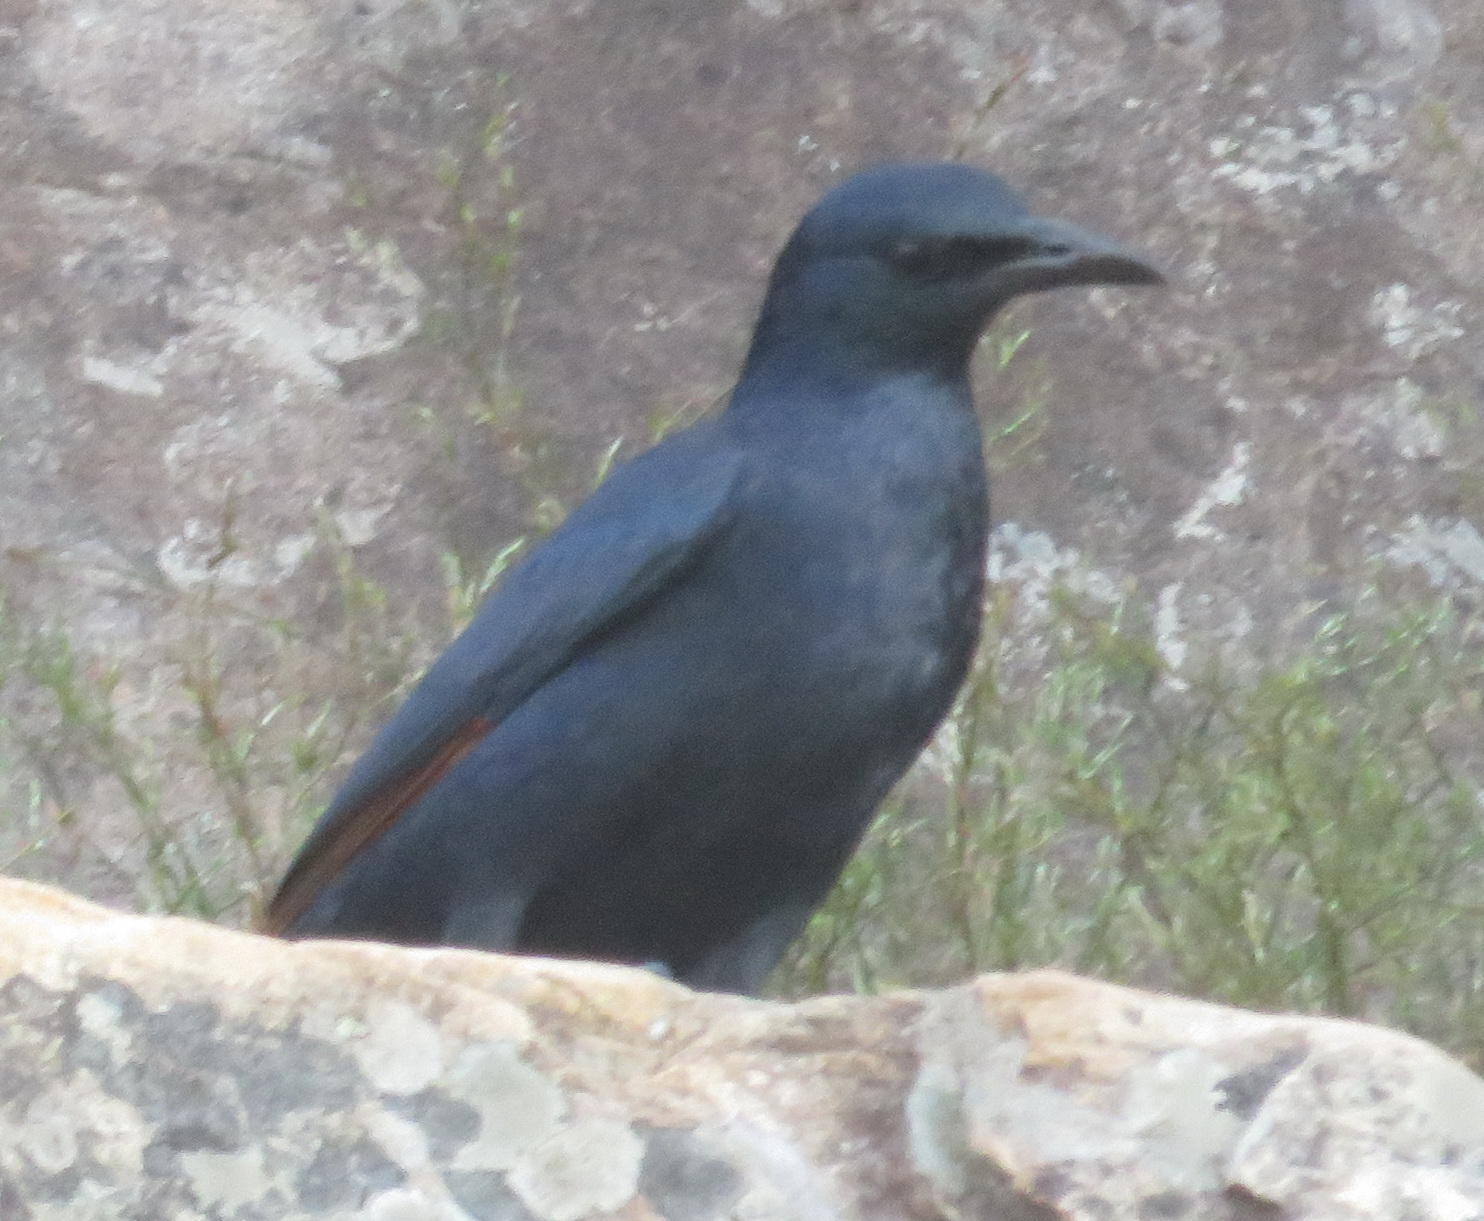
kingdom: Animalia
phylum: Chordata
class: Aves
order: Passeriformes
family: Sturnidae
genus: Onychognathus
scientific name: Onychognathus morio
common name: Red-winged starling
